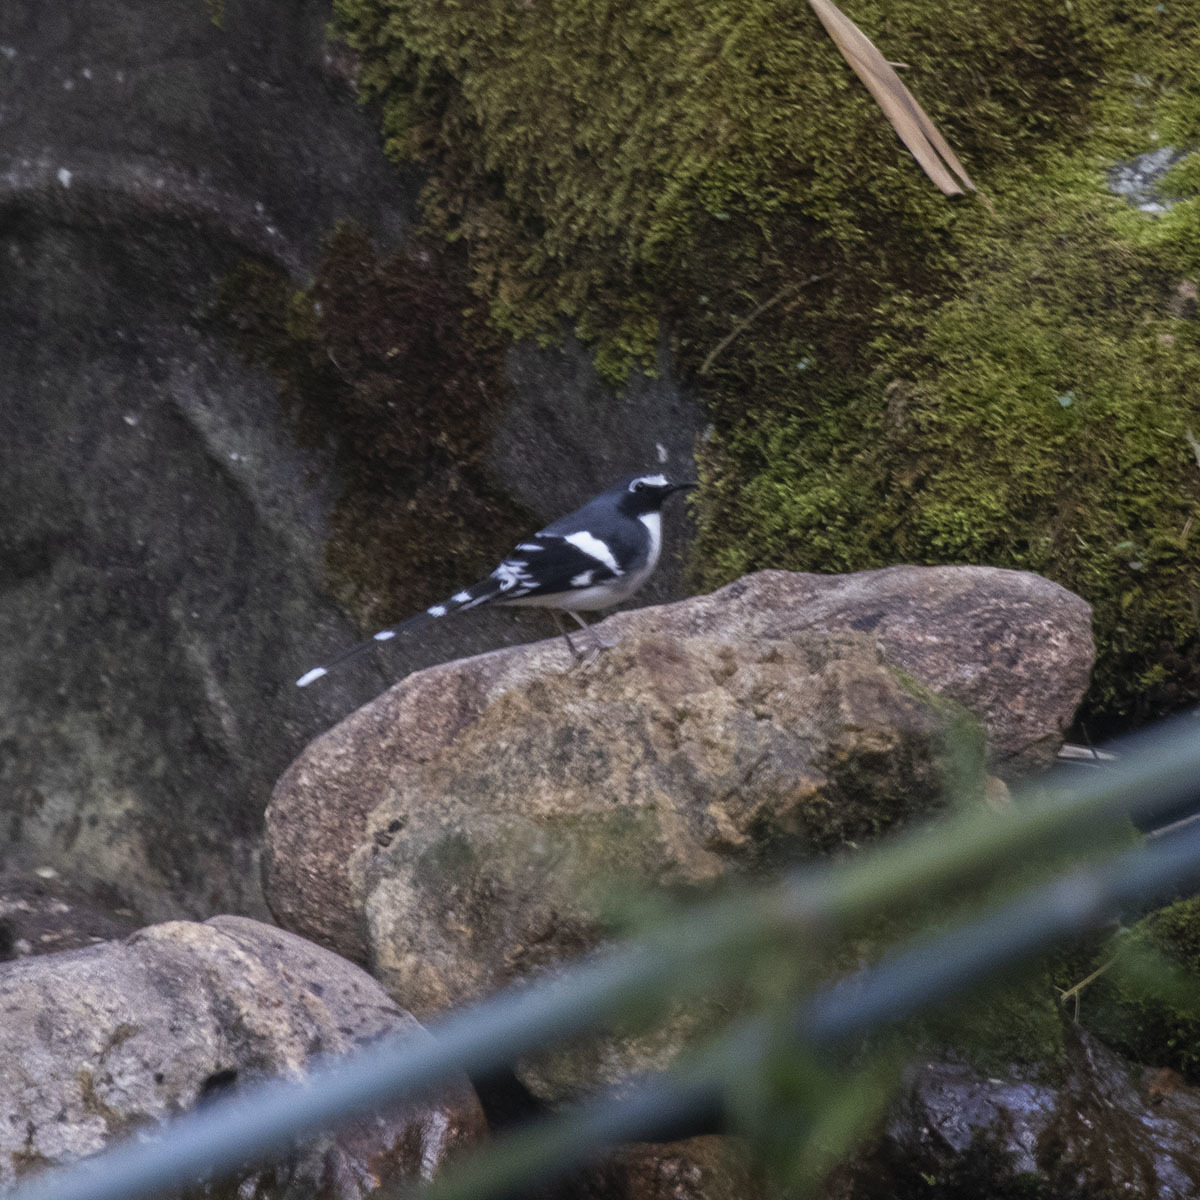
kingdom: Animalia
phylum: Chordata
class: Aves
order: Passeriformes
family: Muscicapidae
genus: Enicurus
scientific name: Enicurus schistaceus
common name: Slaty-backed forktail
